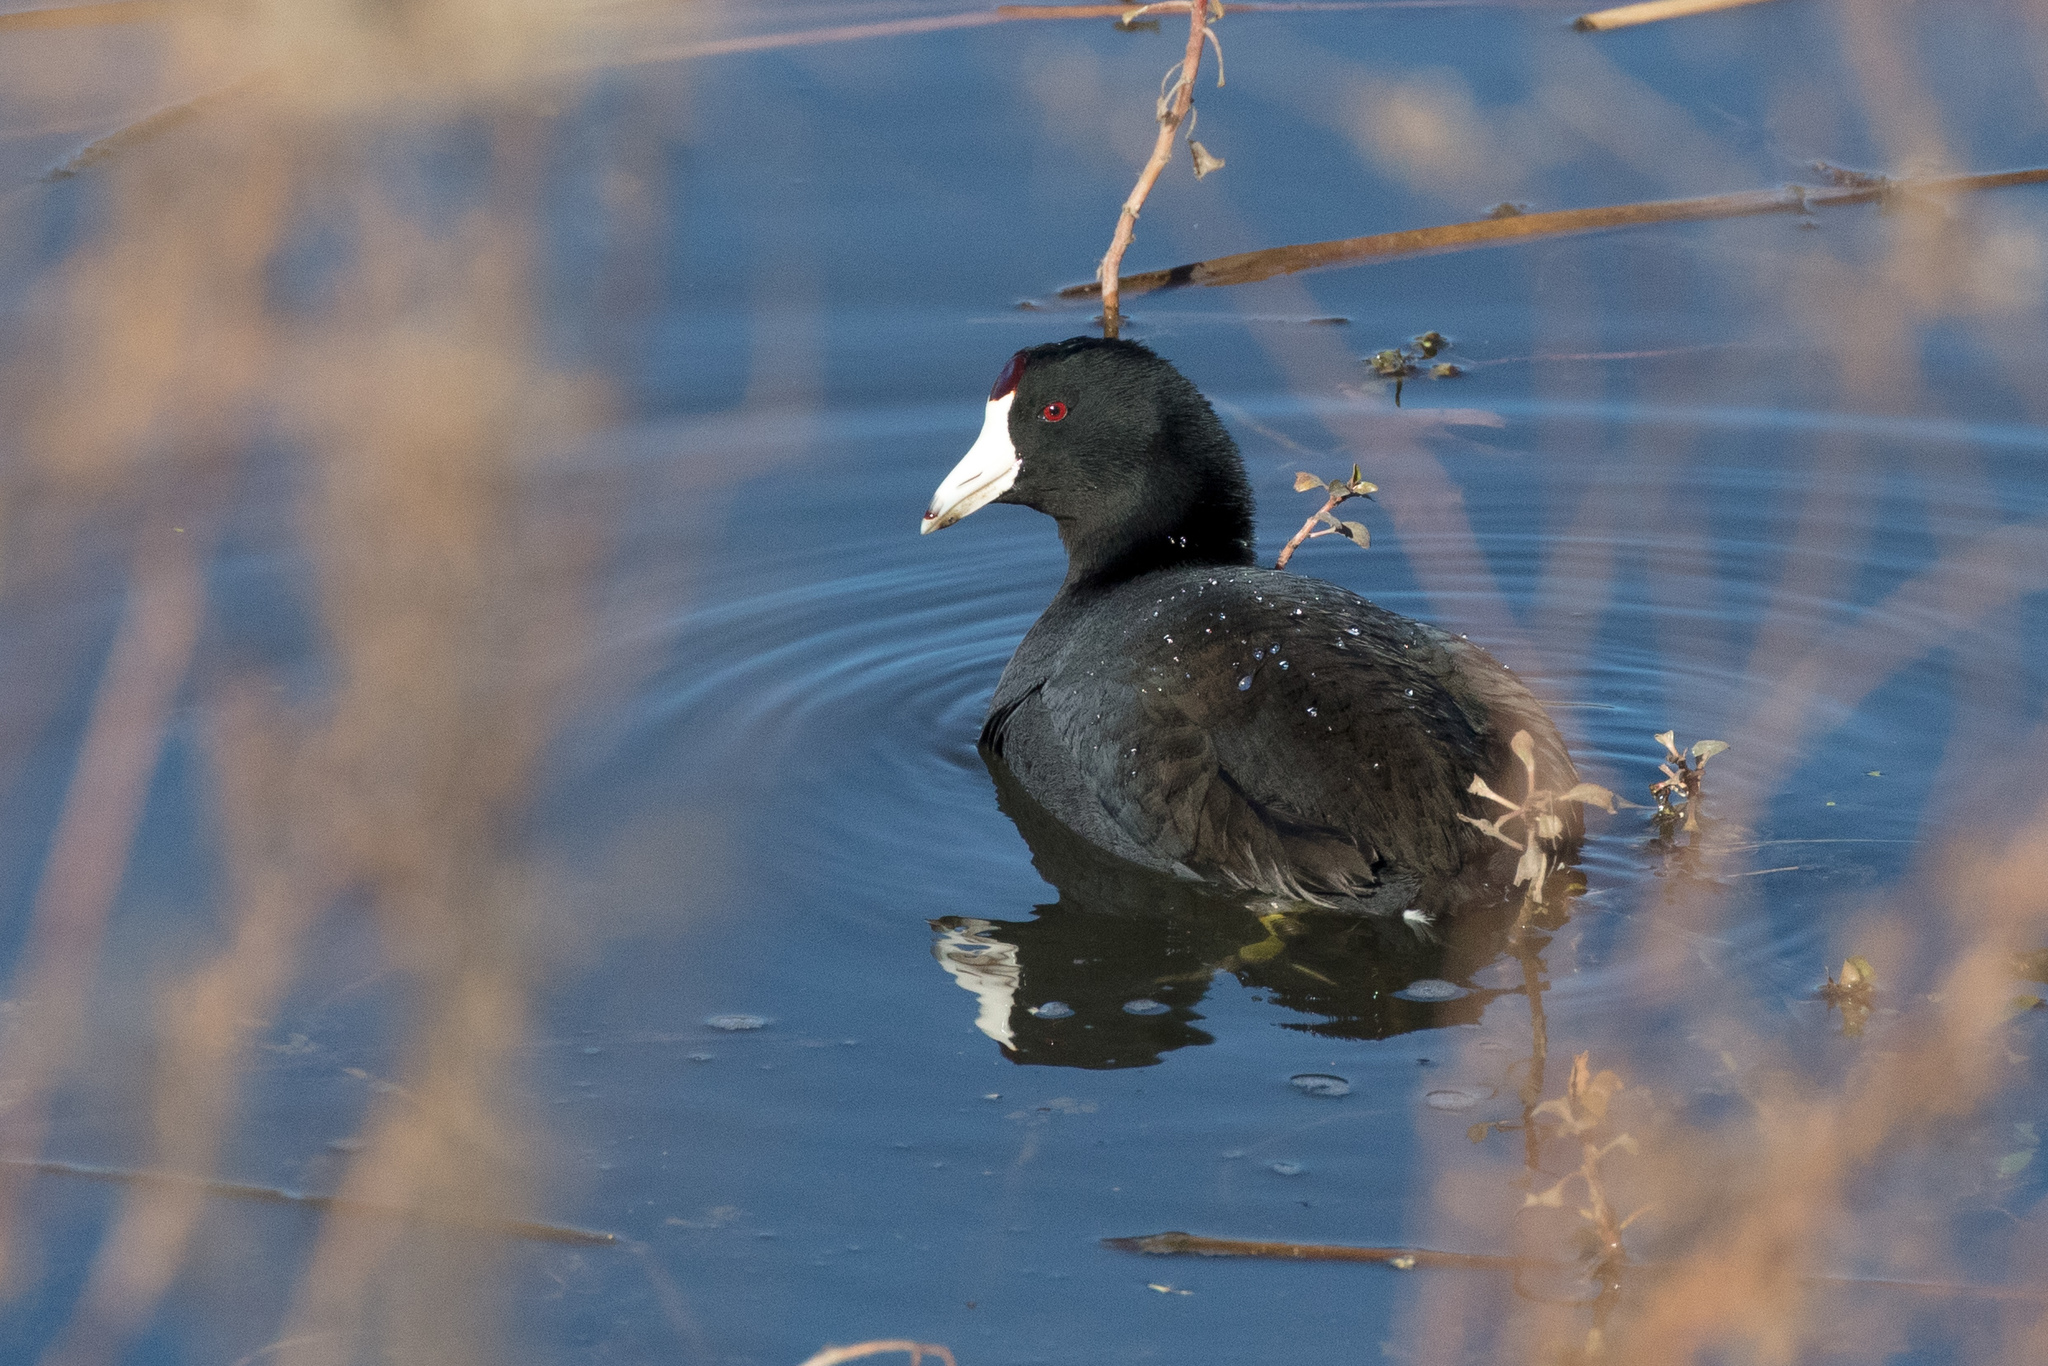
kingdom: Animalia
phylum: Chordata
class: Aves
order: Gruiformes
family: Rallidae
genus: Fulica
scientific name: Fulica americana
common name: American coot
